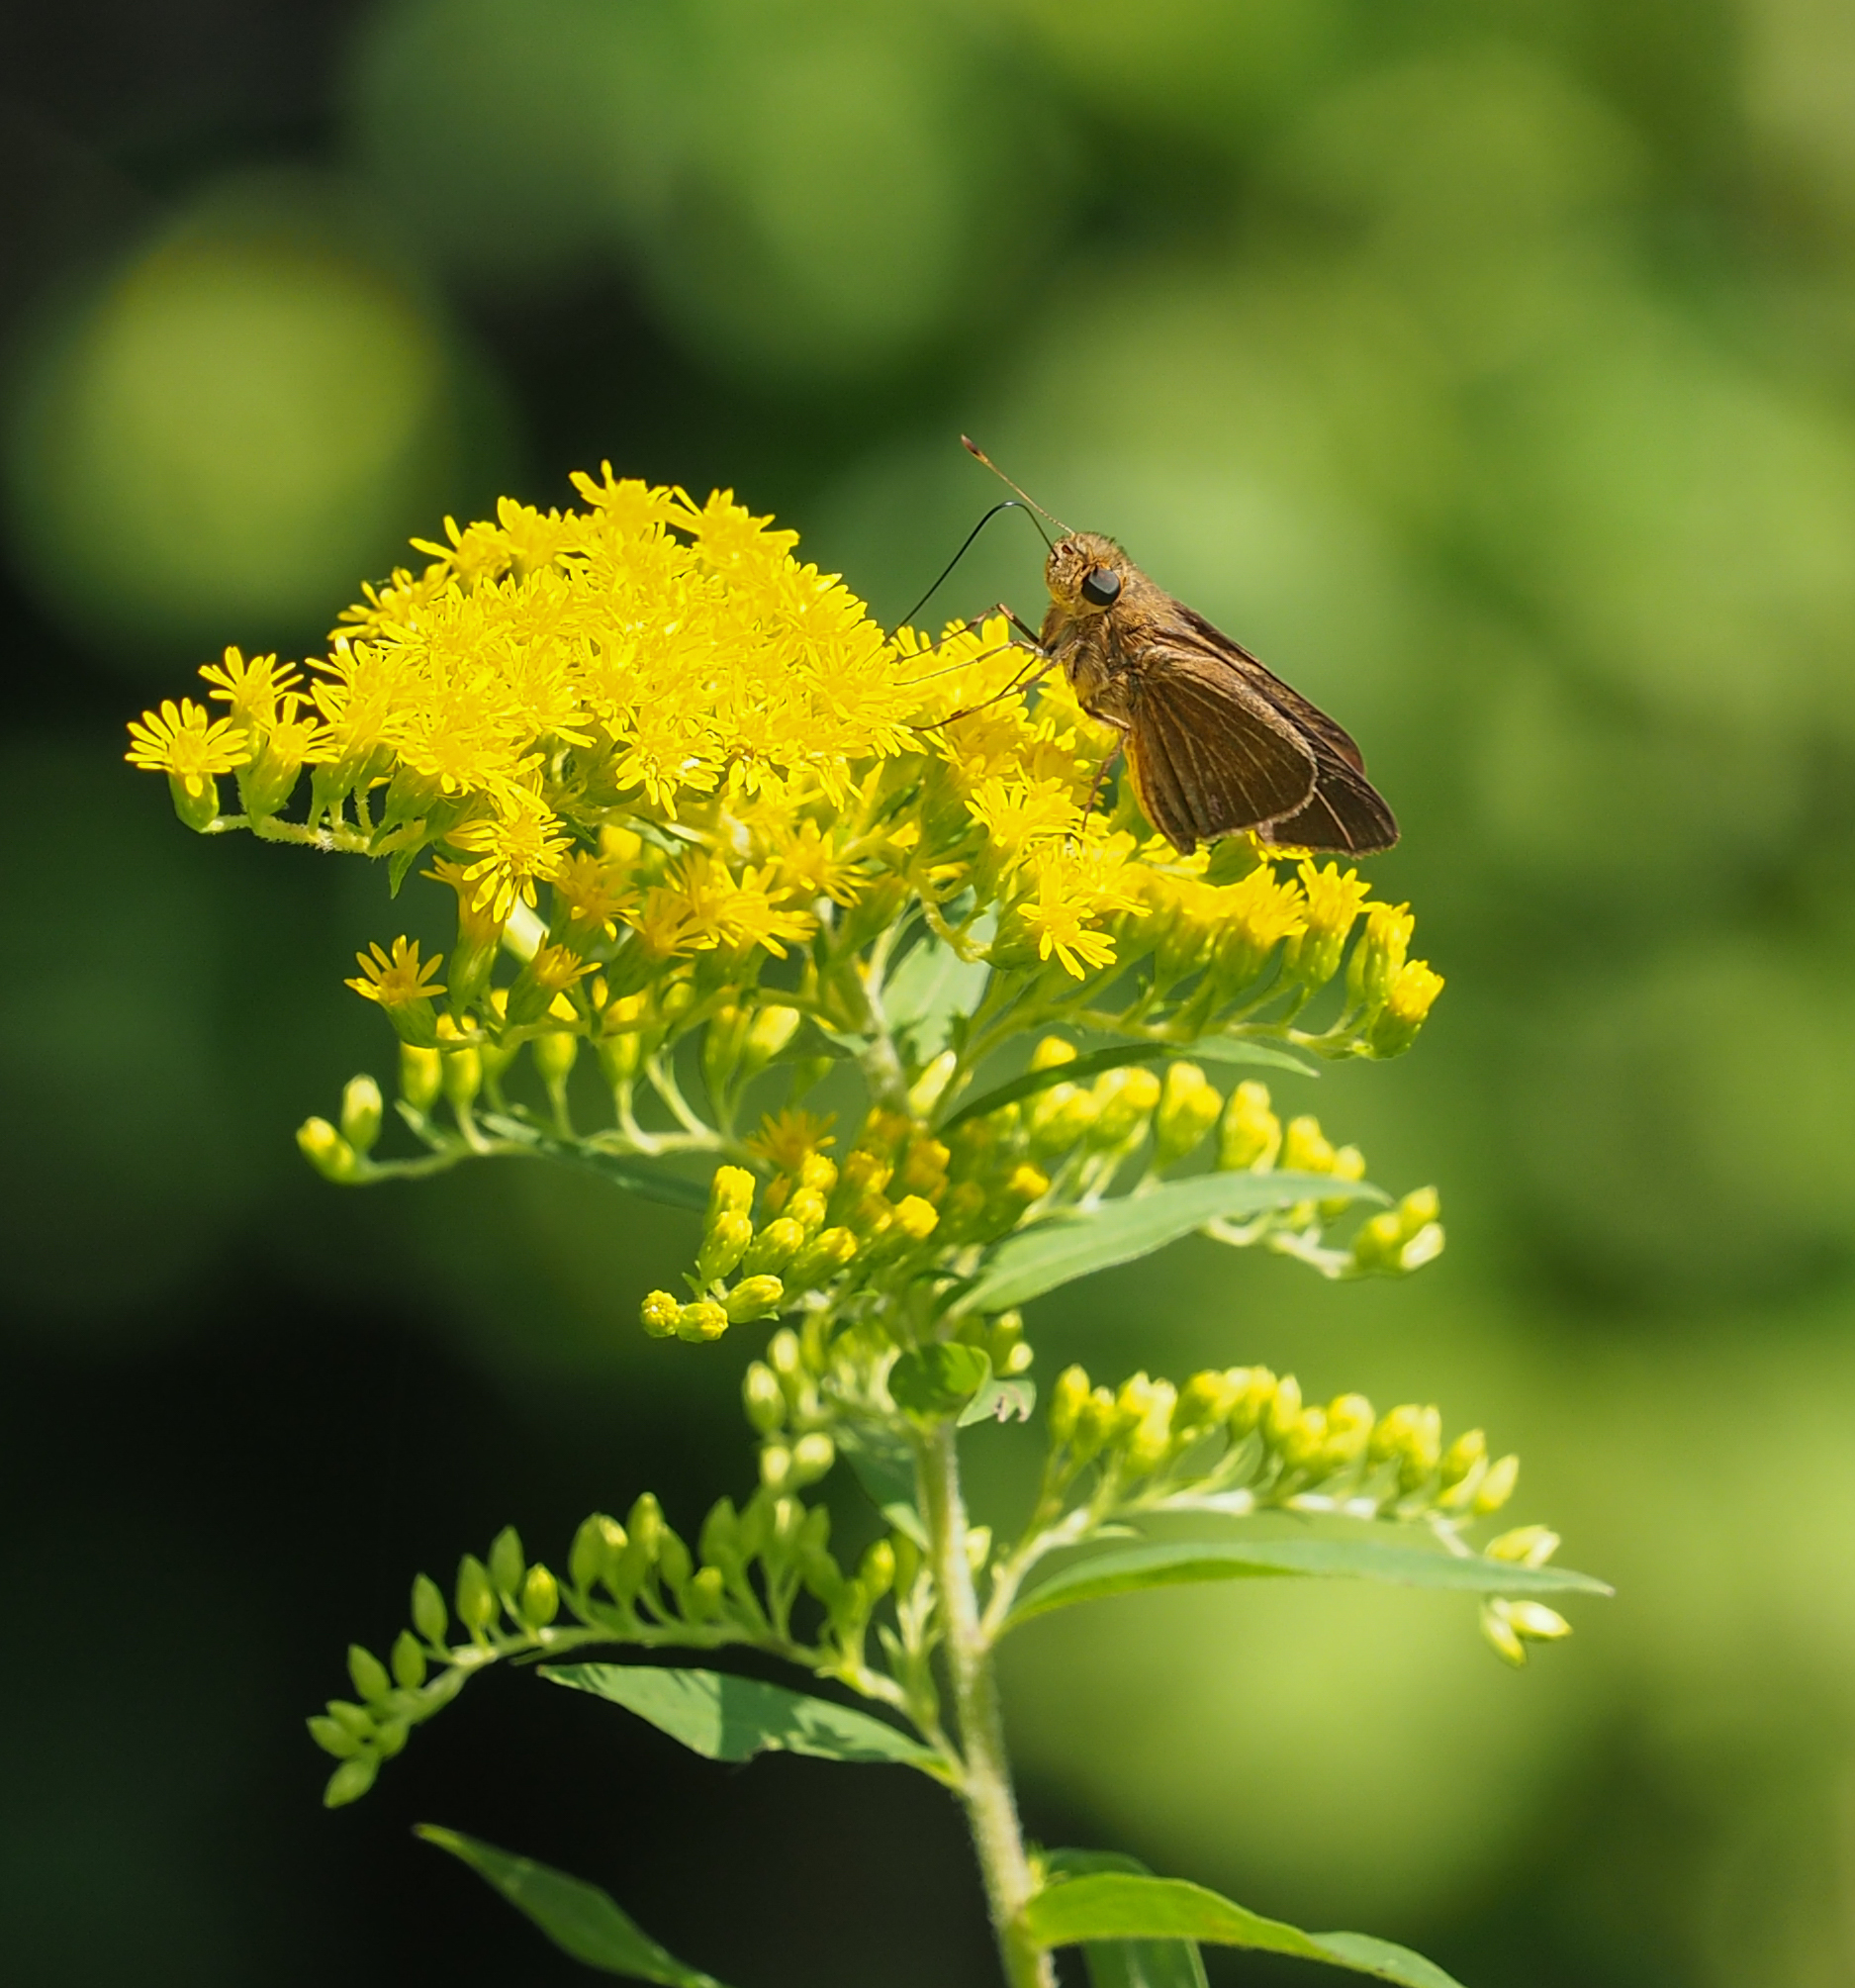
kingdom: Animalia
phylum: Arthropoda
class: Insecta
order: Lepidoptera
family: Hesperiidae
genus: Panoquina
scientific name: Panoquina ocola
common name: Ocola skipper
